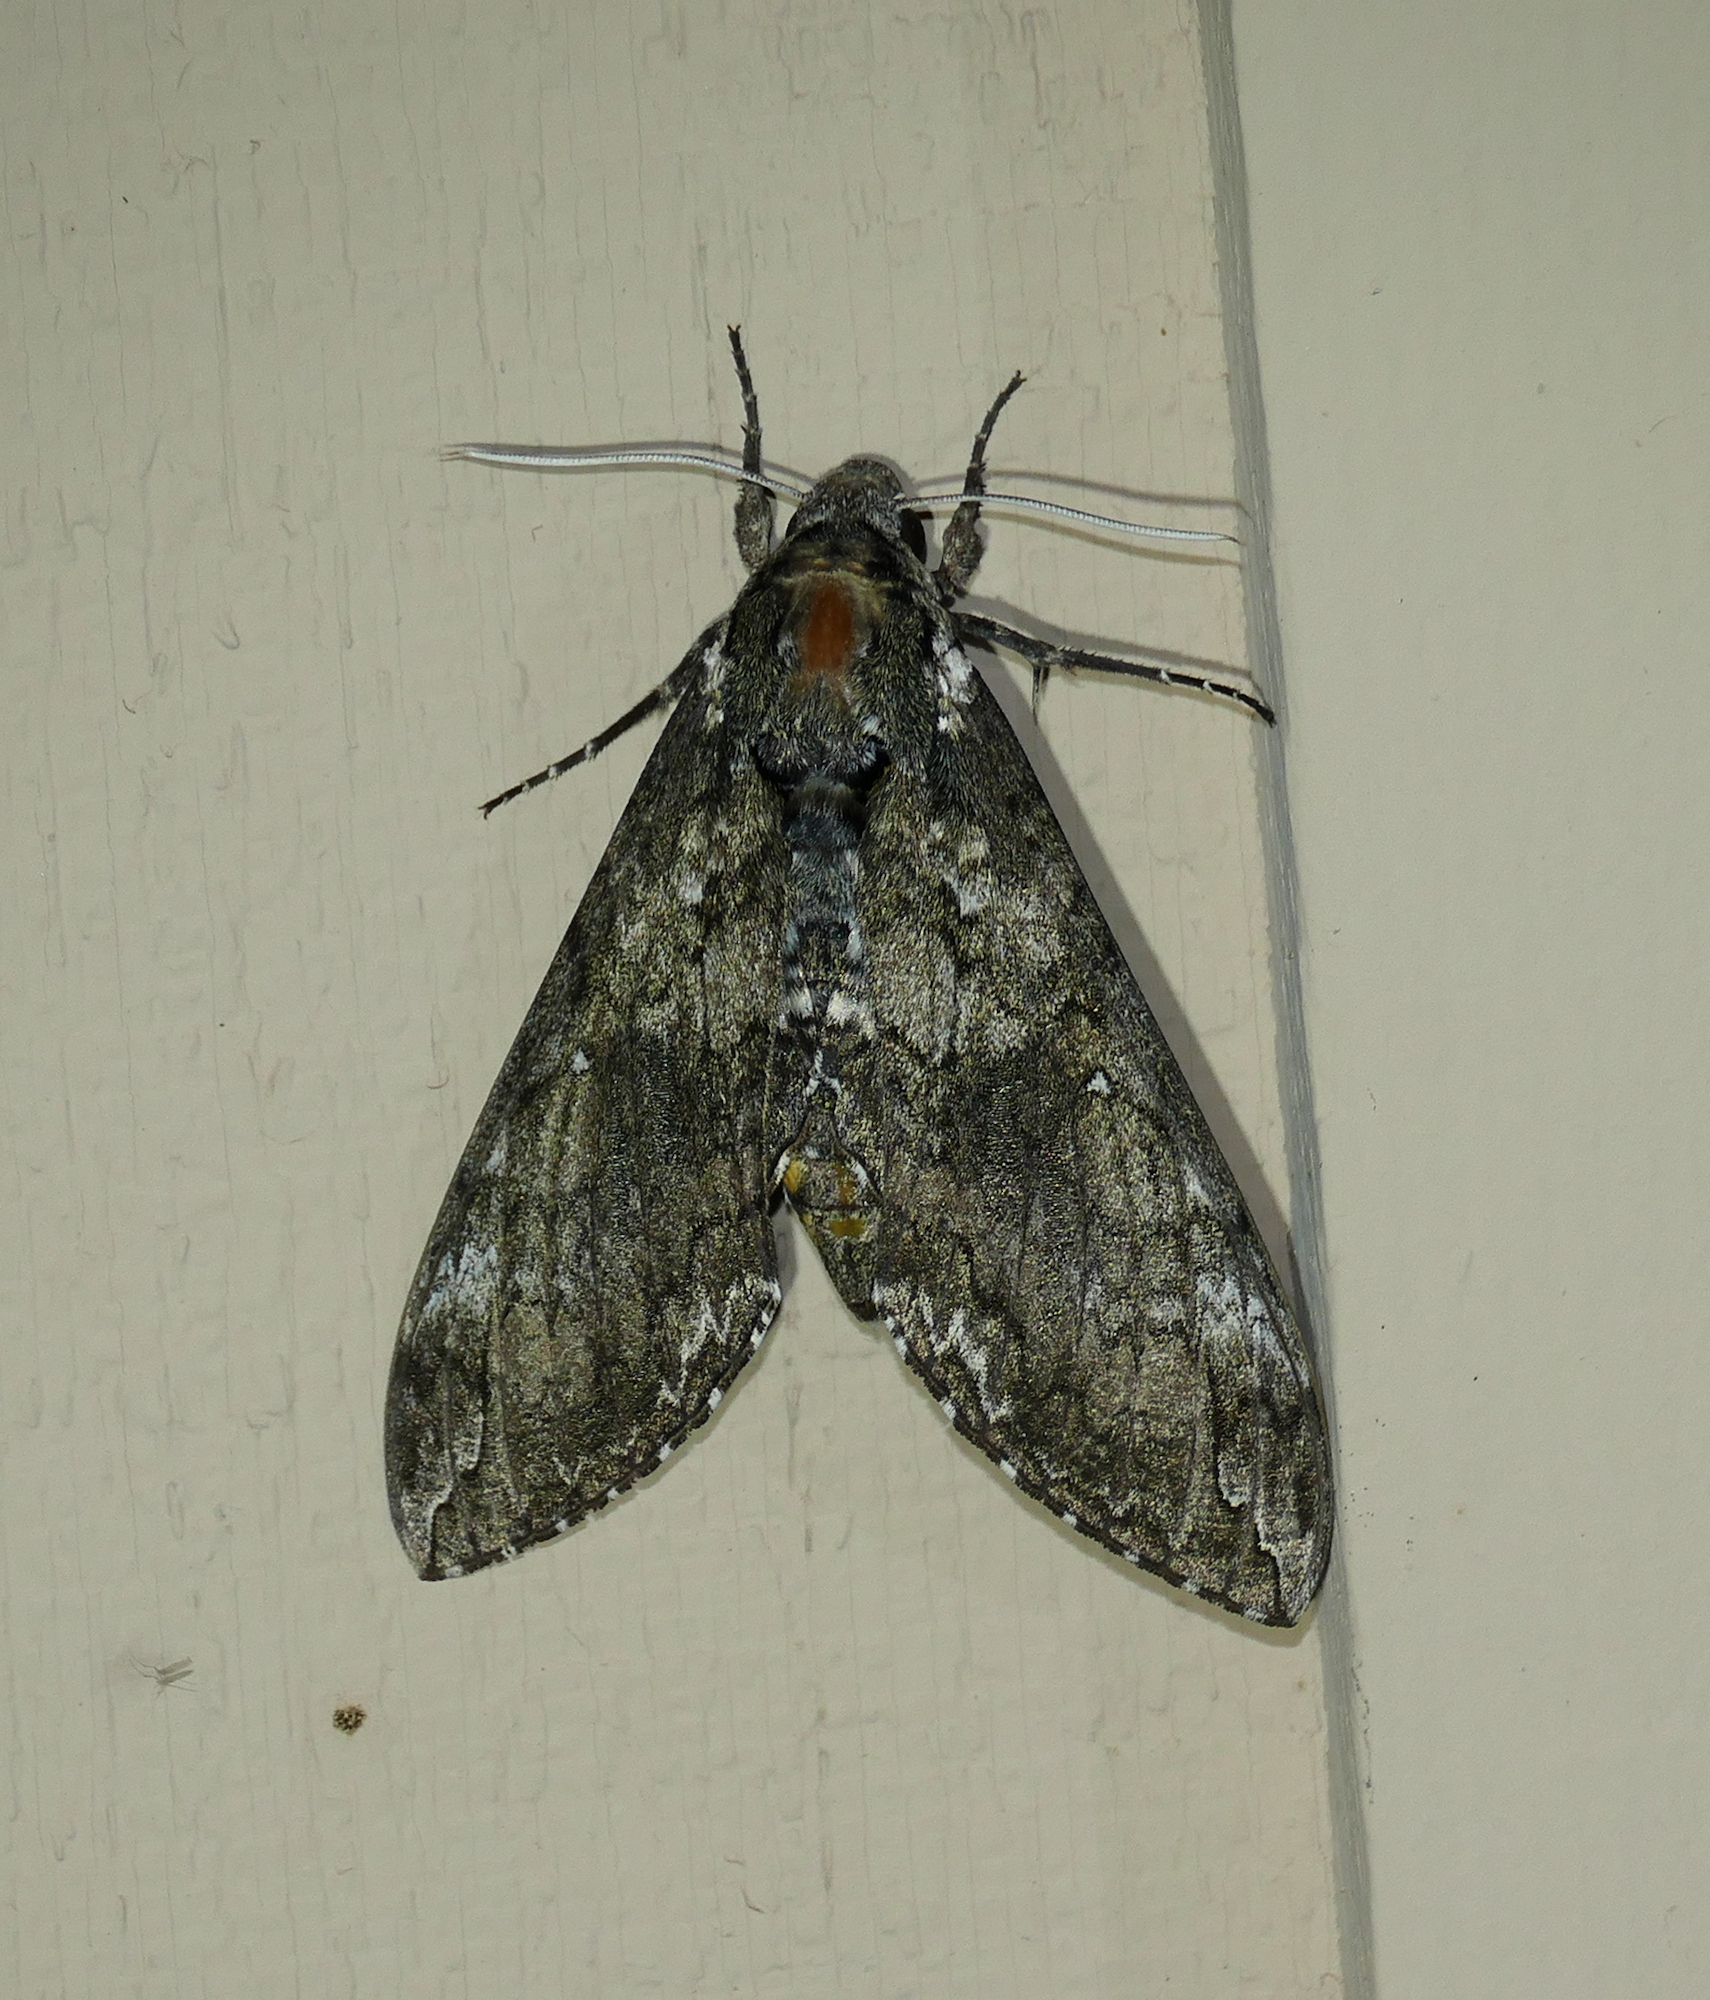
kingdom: Animalia
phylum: Arthropoda
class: Insecta
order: Lepidoptera
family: Sphingidae
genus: Manduca
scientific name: Manduca sexta
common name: Carolina sphinx
